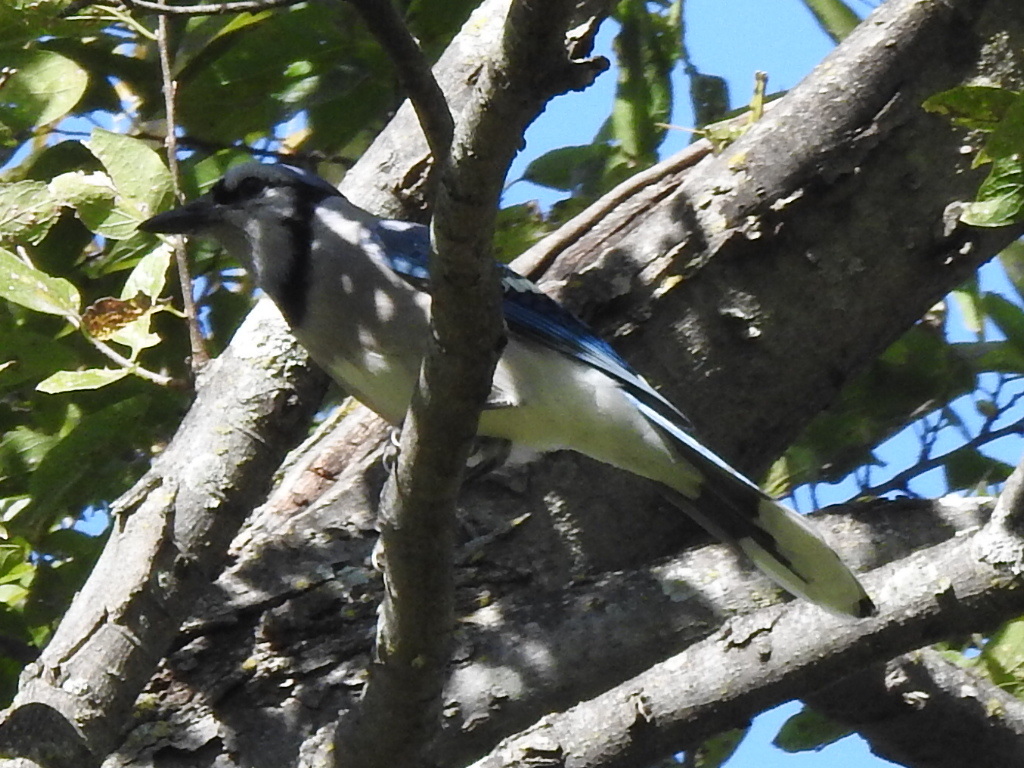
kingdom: Animalia
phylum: Chordata
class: Aves
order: Passeriformes
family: Corvidae
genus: Cyanocitta
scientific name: Cyanocitta cristata
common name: Blue jay
